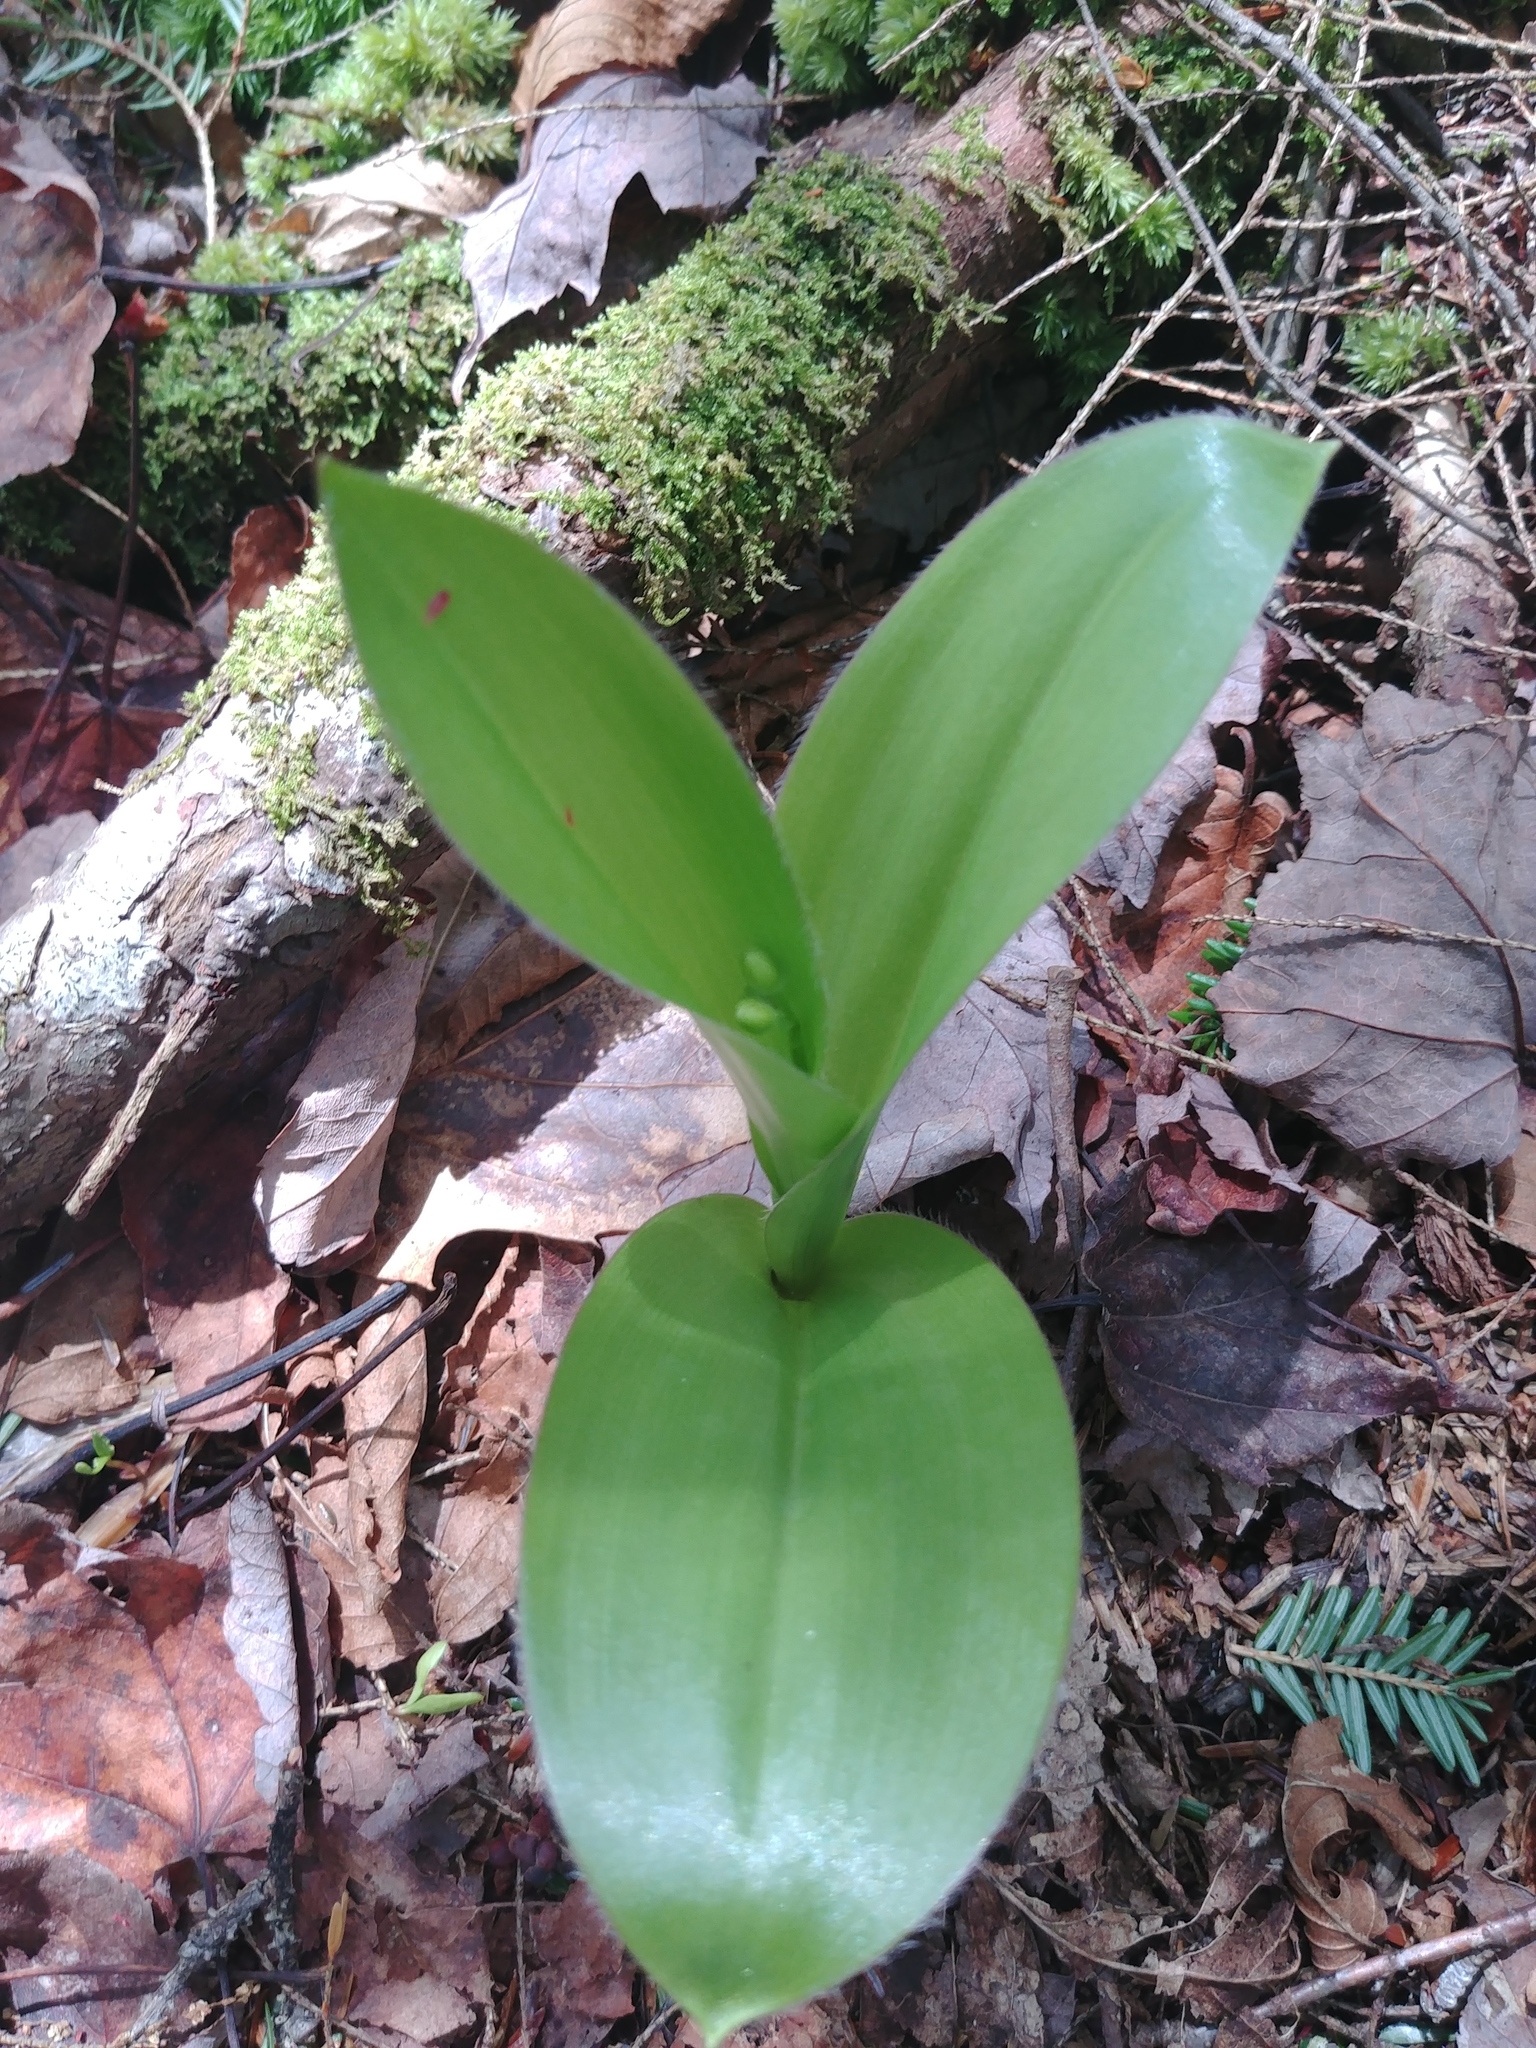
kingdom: Plantae
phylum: Tracheophyta
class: Liliopsida
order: Liliales
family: Liliaceae
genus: Clintonia
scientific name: Clintonia borealis
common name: Yellow clintonia
